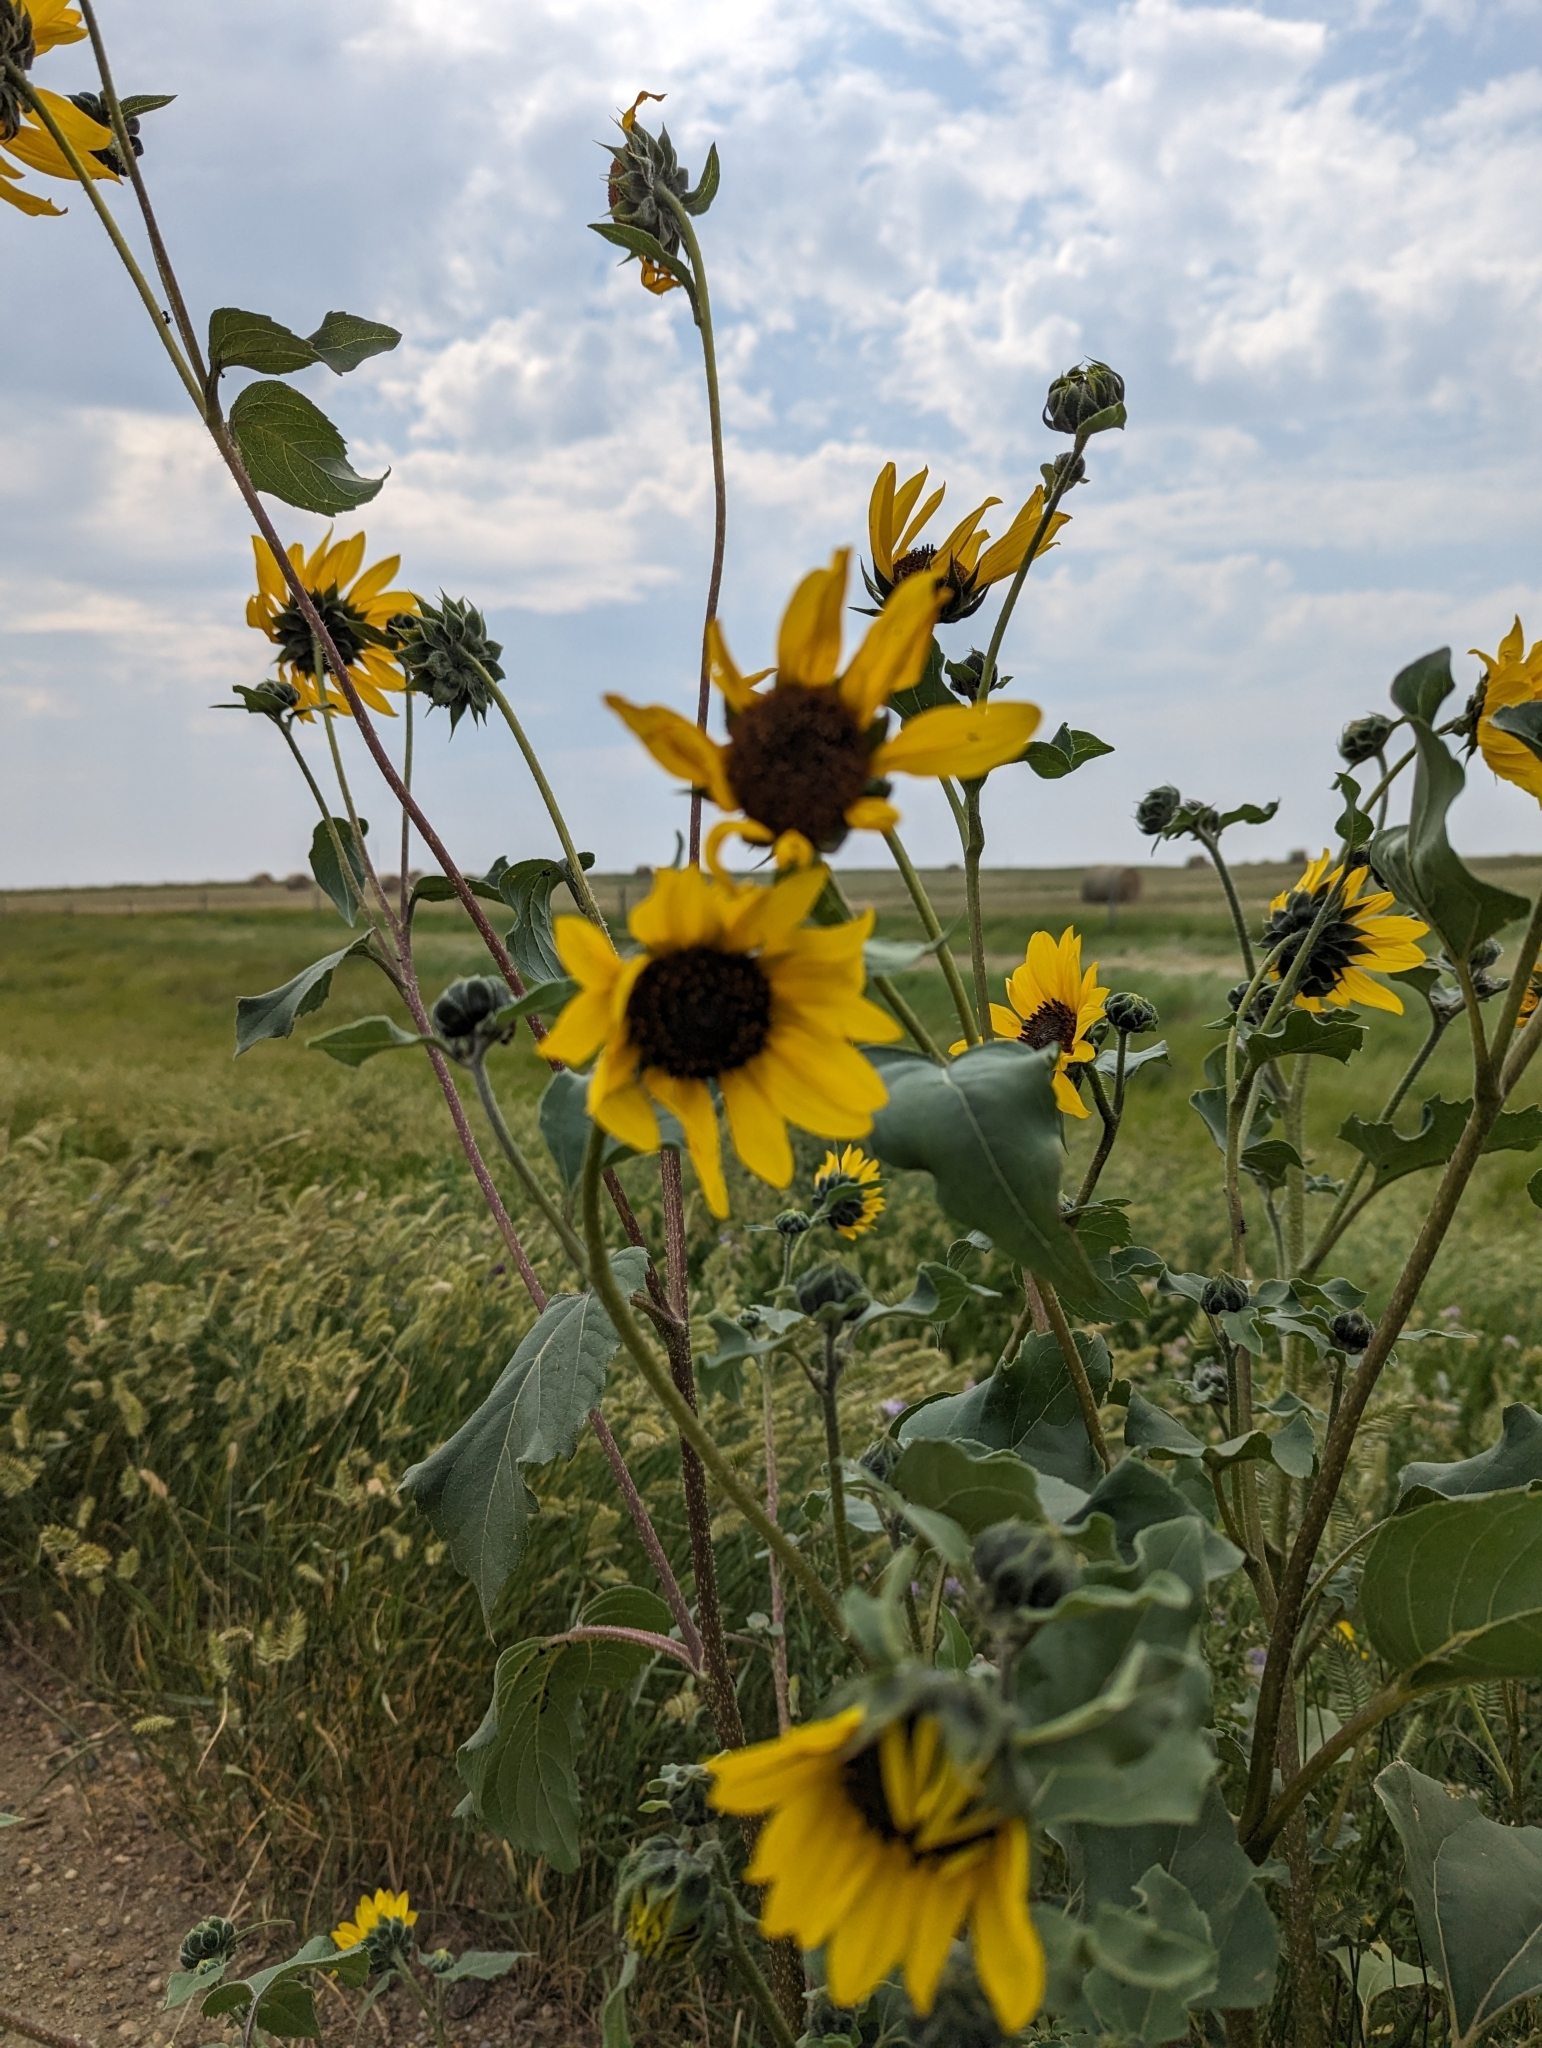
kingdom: Plantae
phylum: Tracheophyta
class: Magnoliopsida
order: Asterales
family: Asteraceae
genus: Helianthus
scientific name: Helianthus annuus
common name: Sunflower
